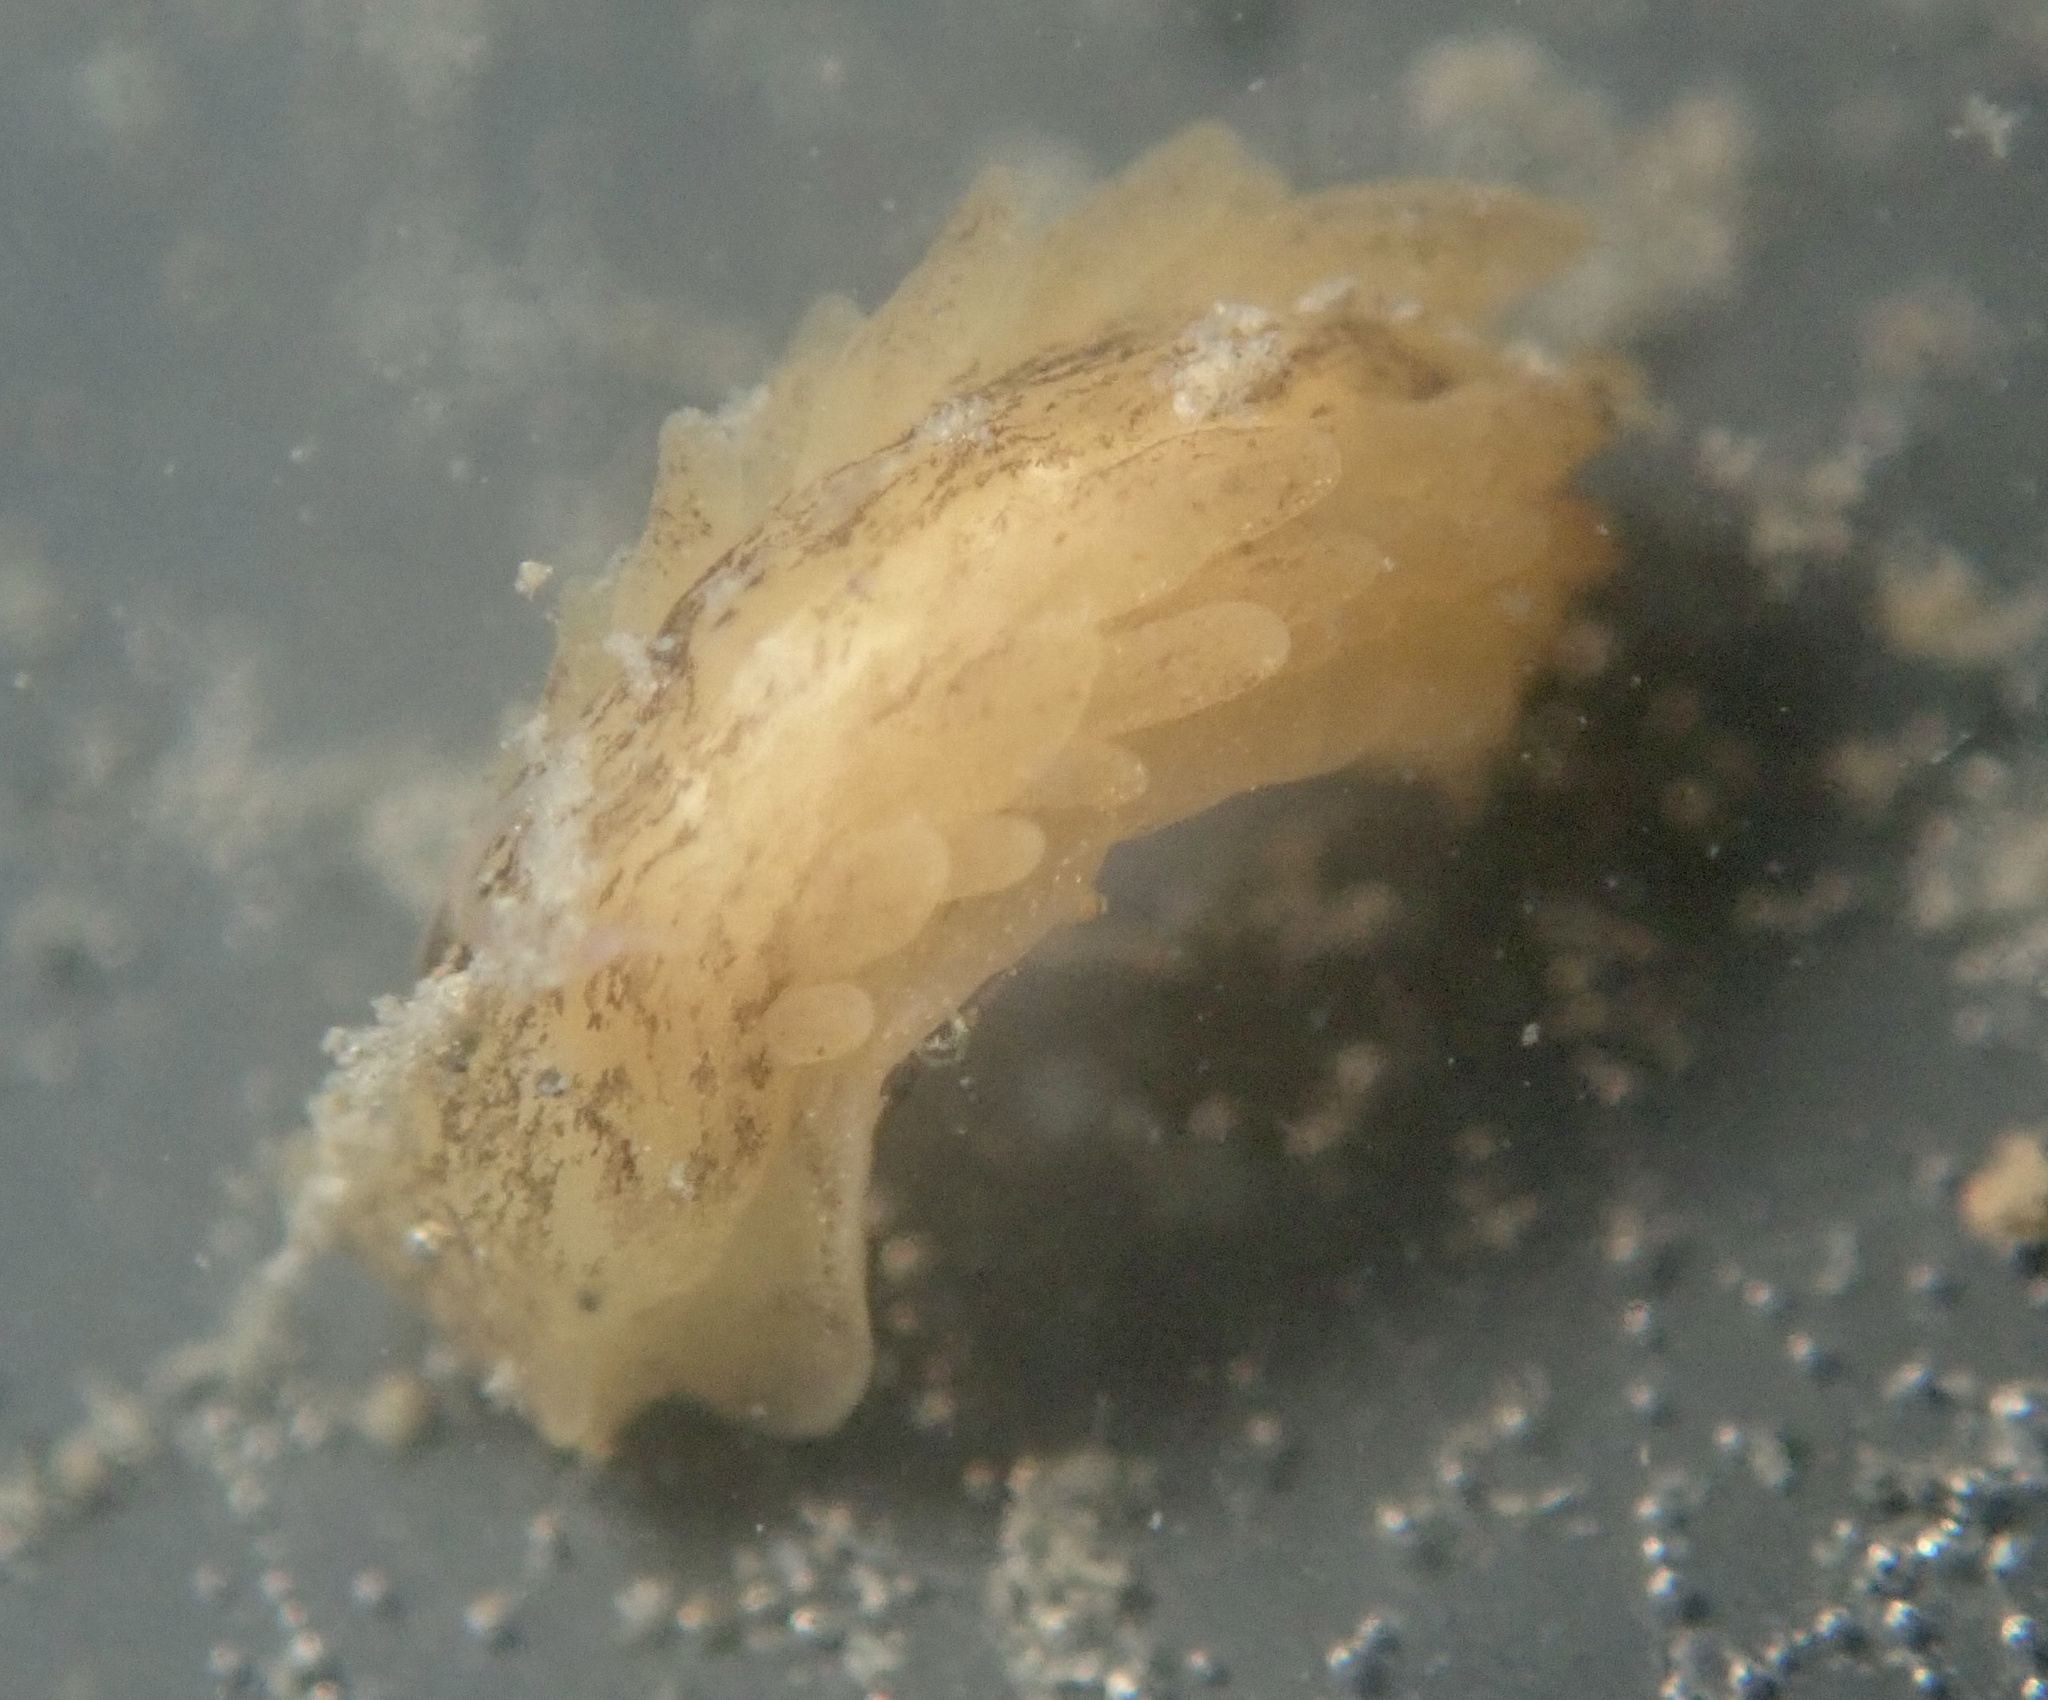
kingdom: Animalia
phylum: Mollusca
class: Gastropoda
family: Limapontiidae
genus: Alderia
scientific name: Alderia modesta
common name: Modest alderia
